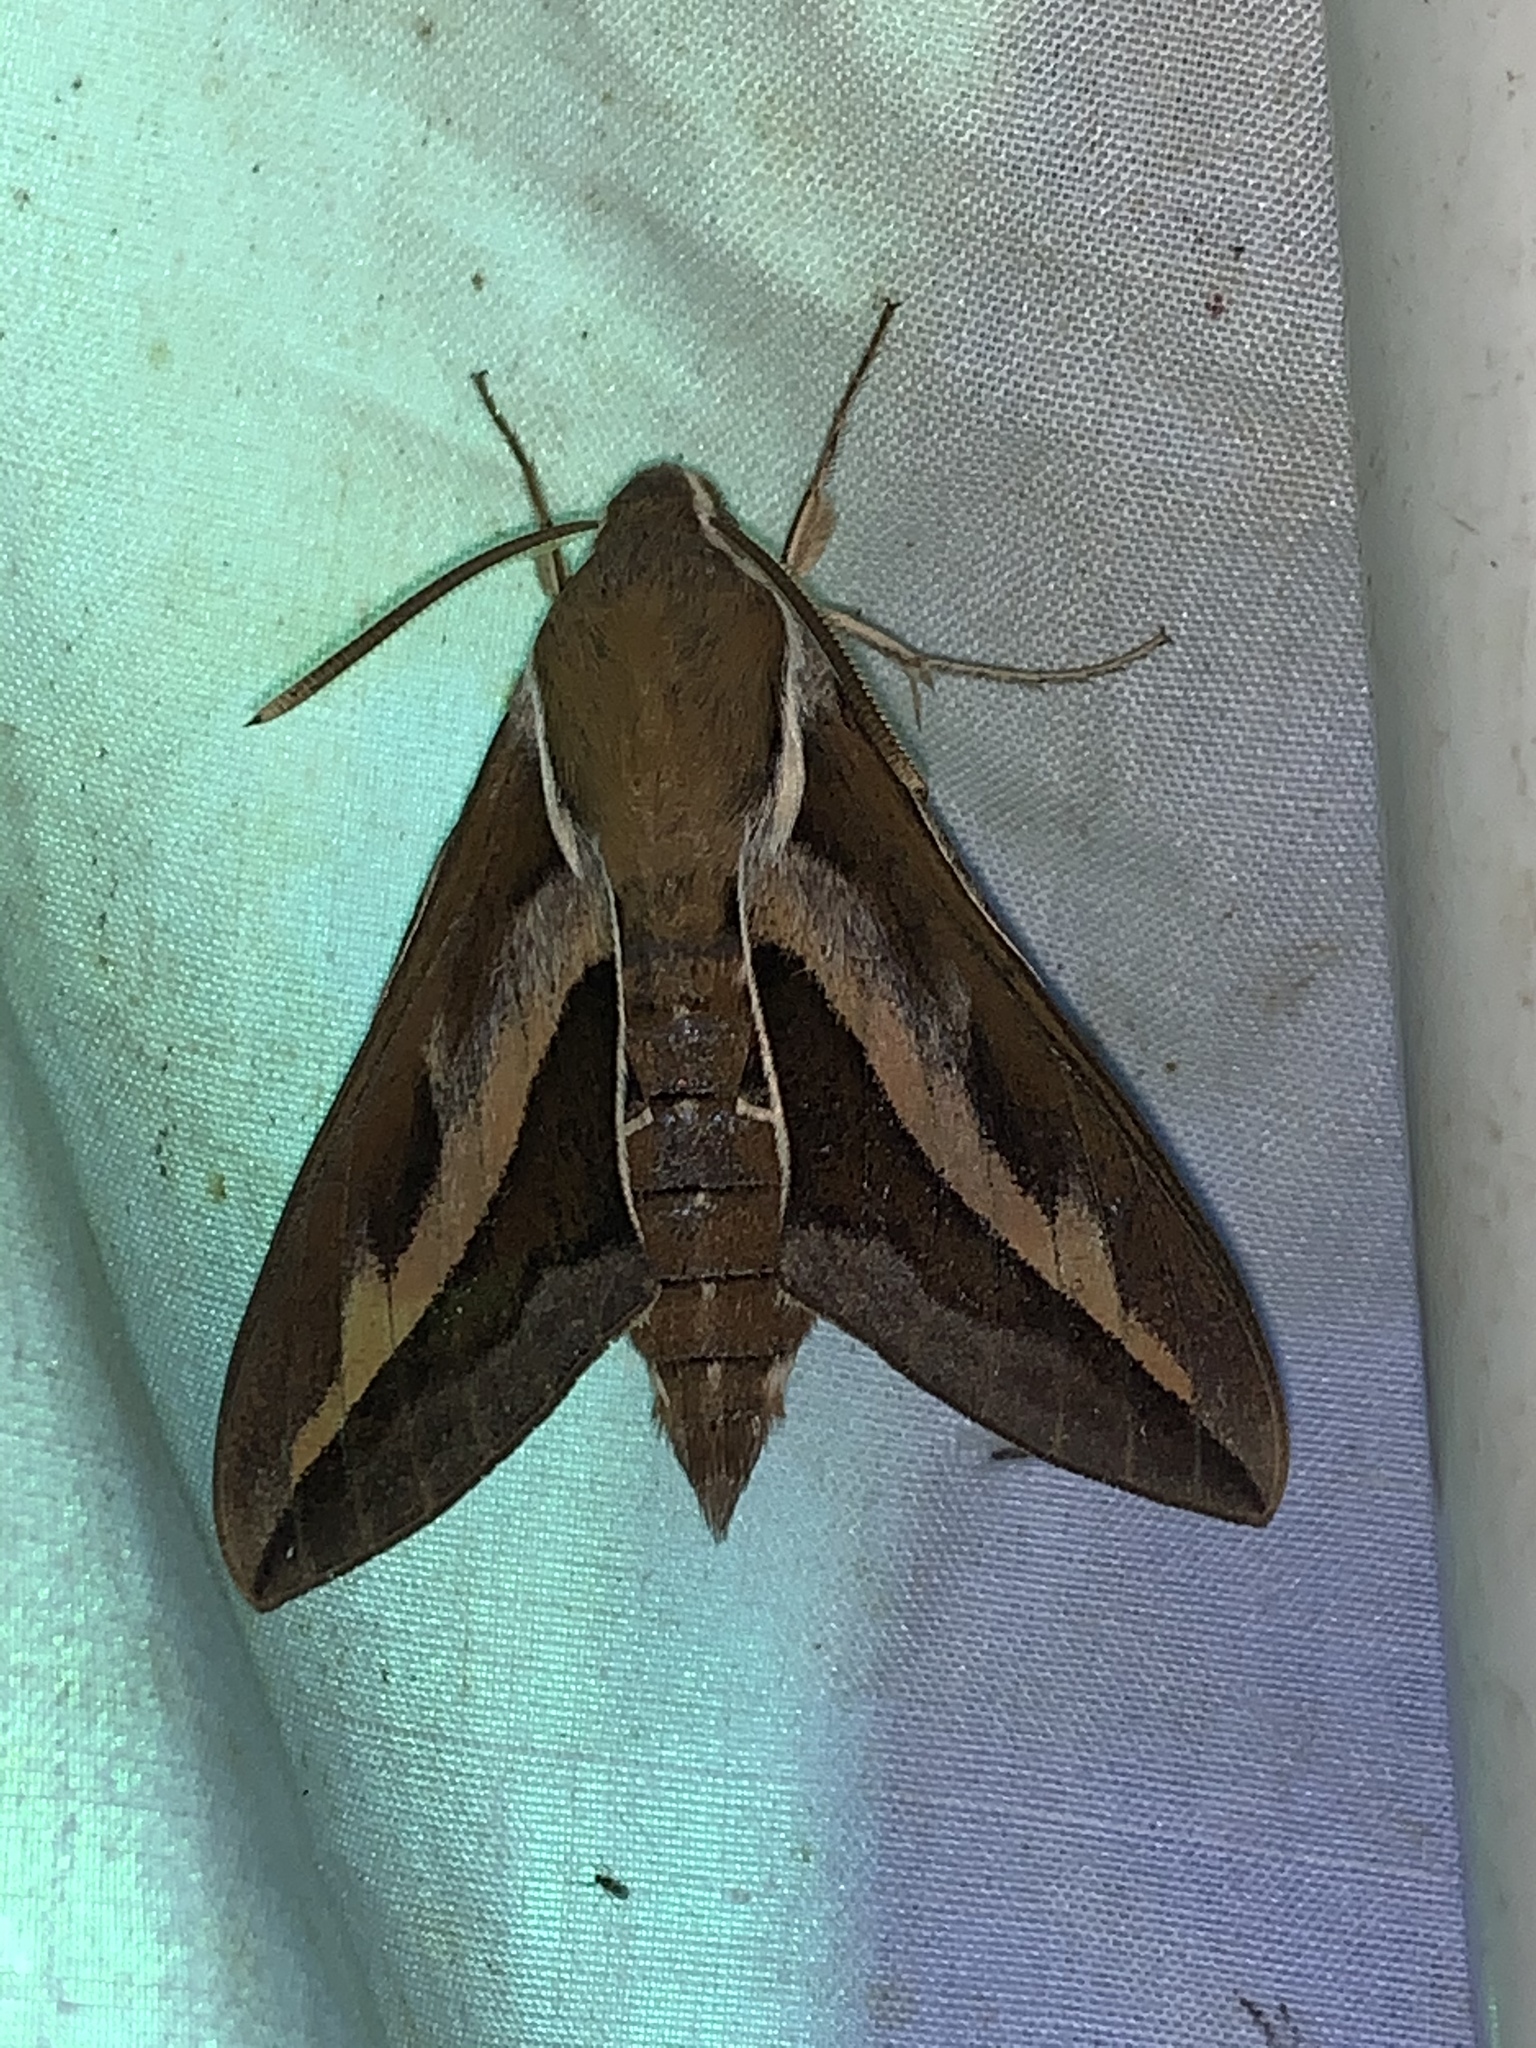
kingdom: Animalia
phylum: Arthropoda
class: Insecta
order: Lepidoptera
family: Sphingidae
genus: Hyles
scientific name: Hyles gallii
